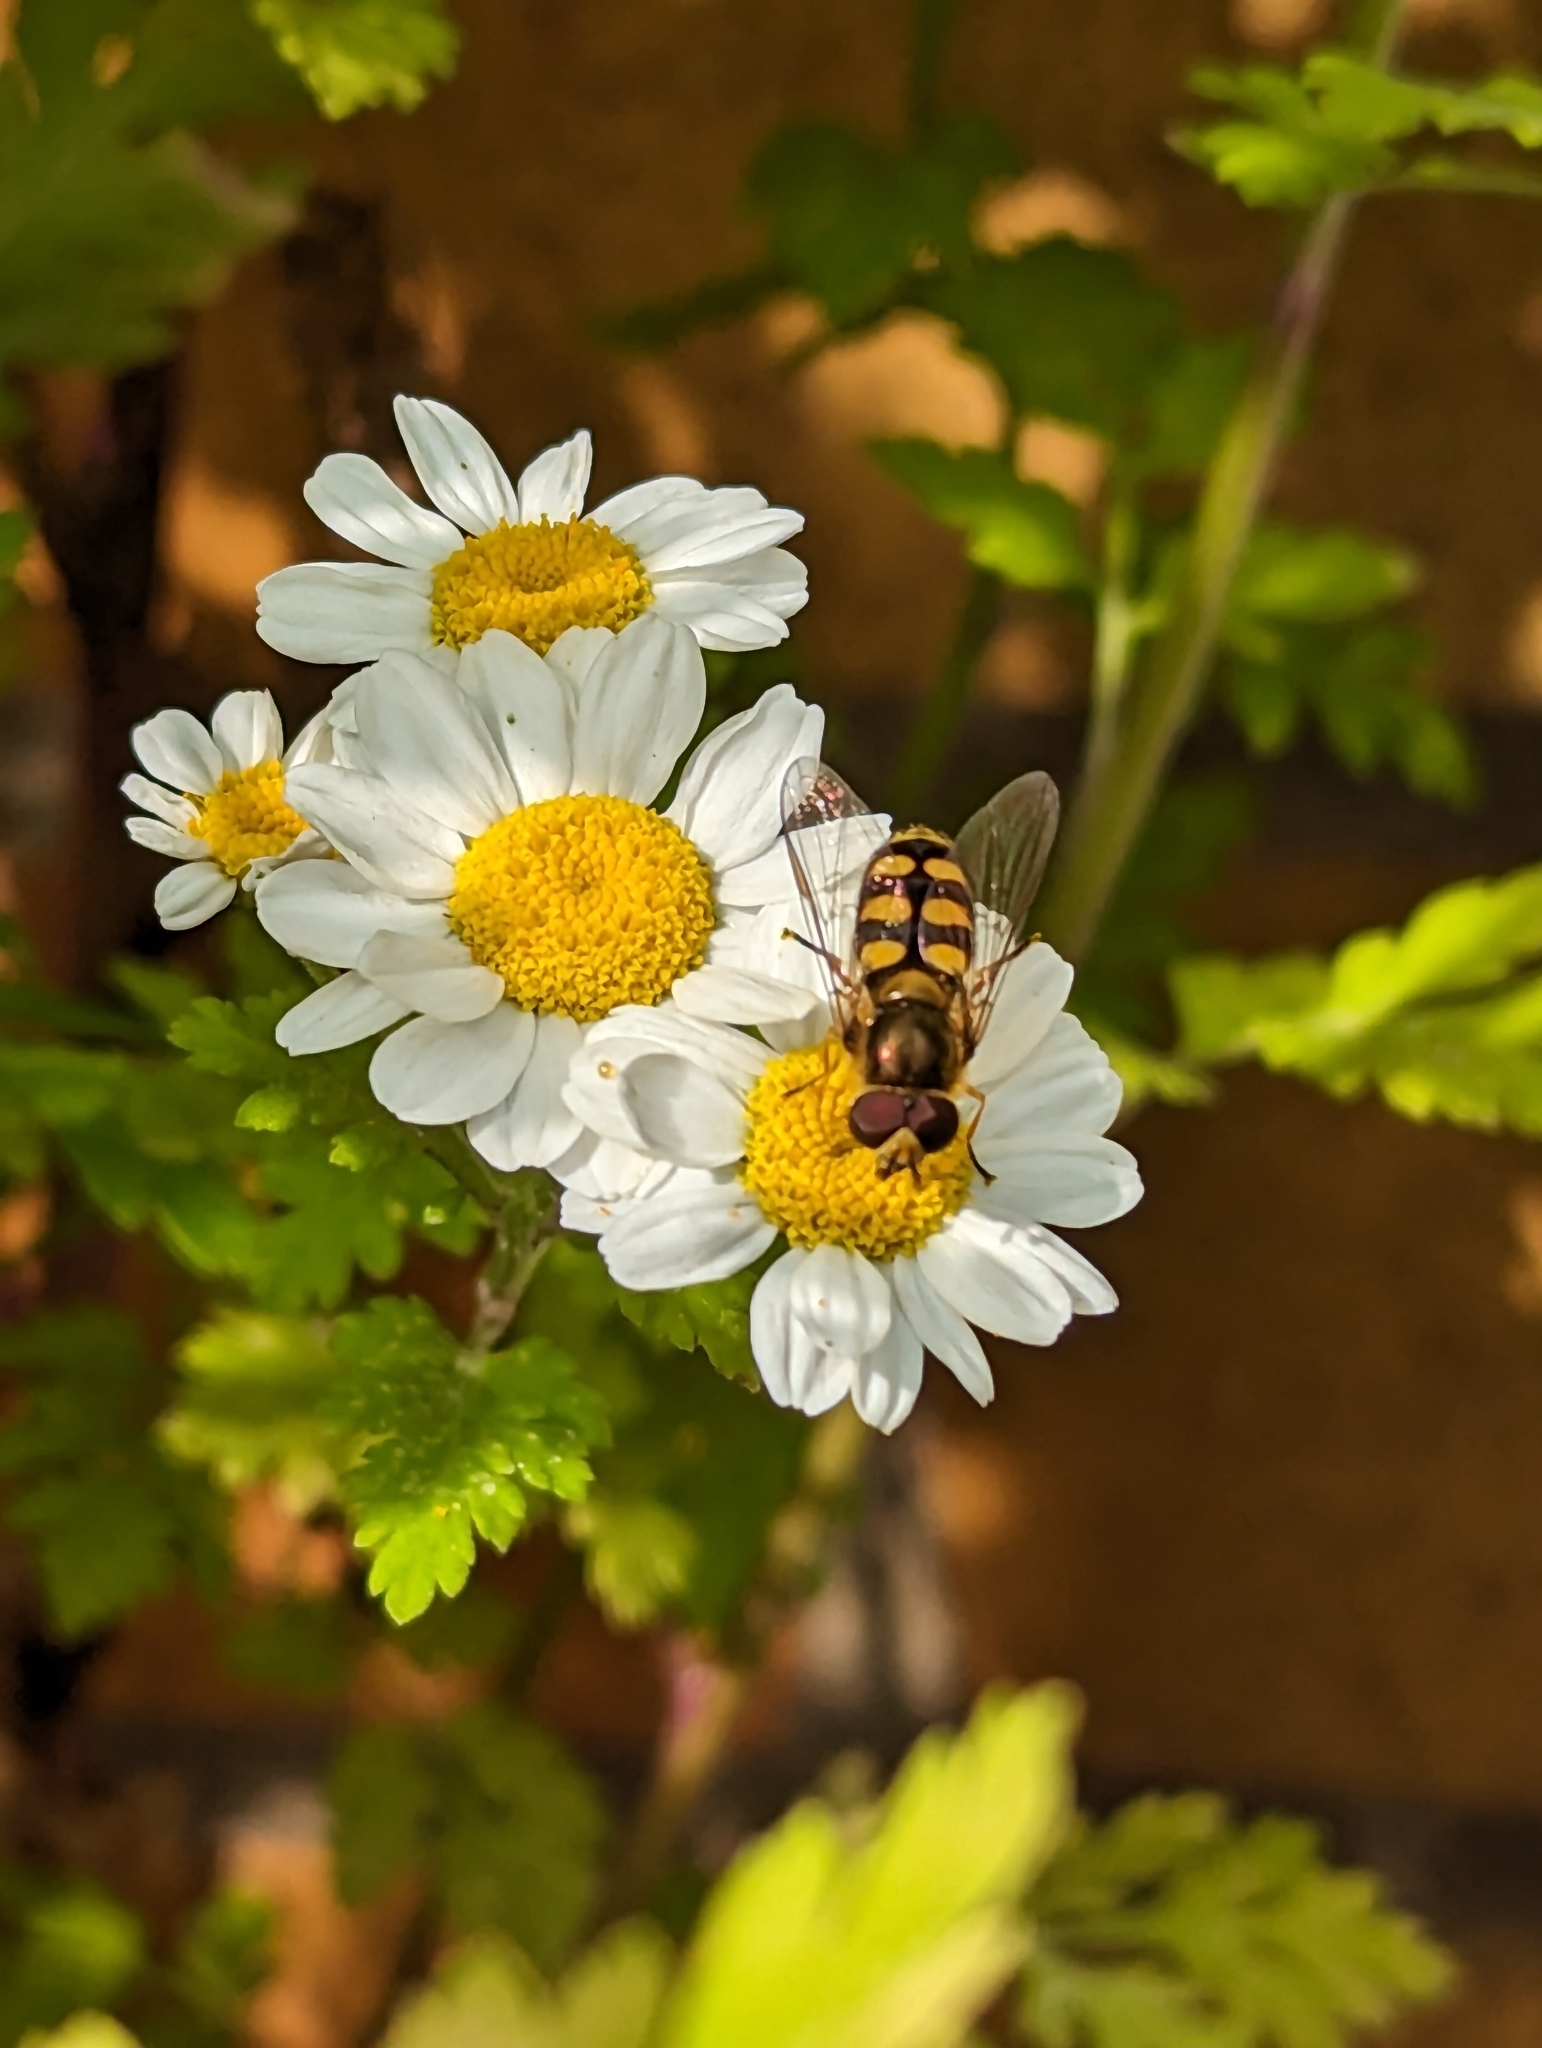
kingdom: Animalia
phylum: Arthropoda
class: Insecta
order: Diptera
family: Syrphidae
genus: Eupeodes
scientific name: Eupeodes
